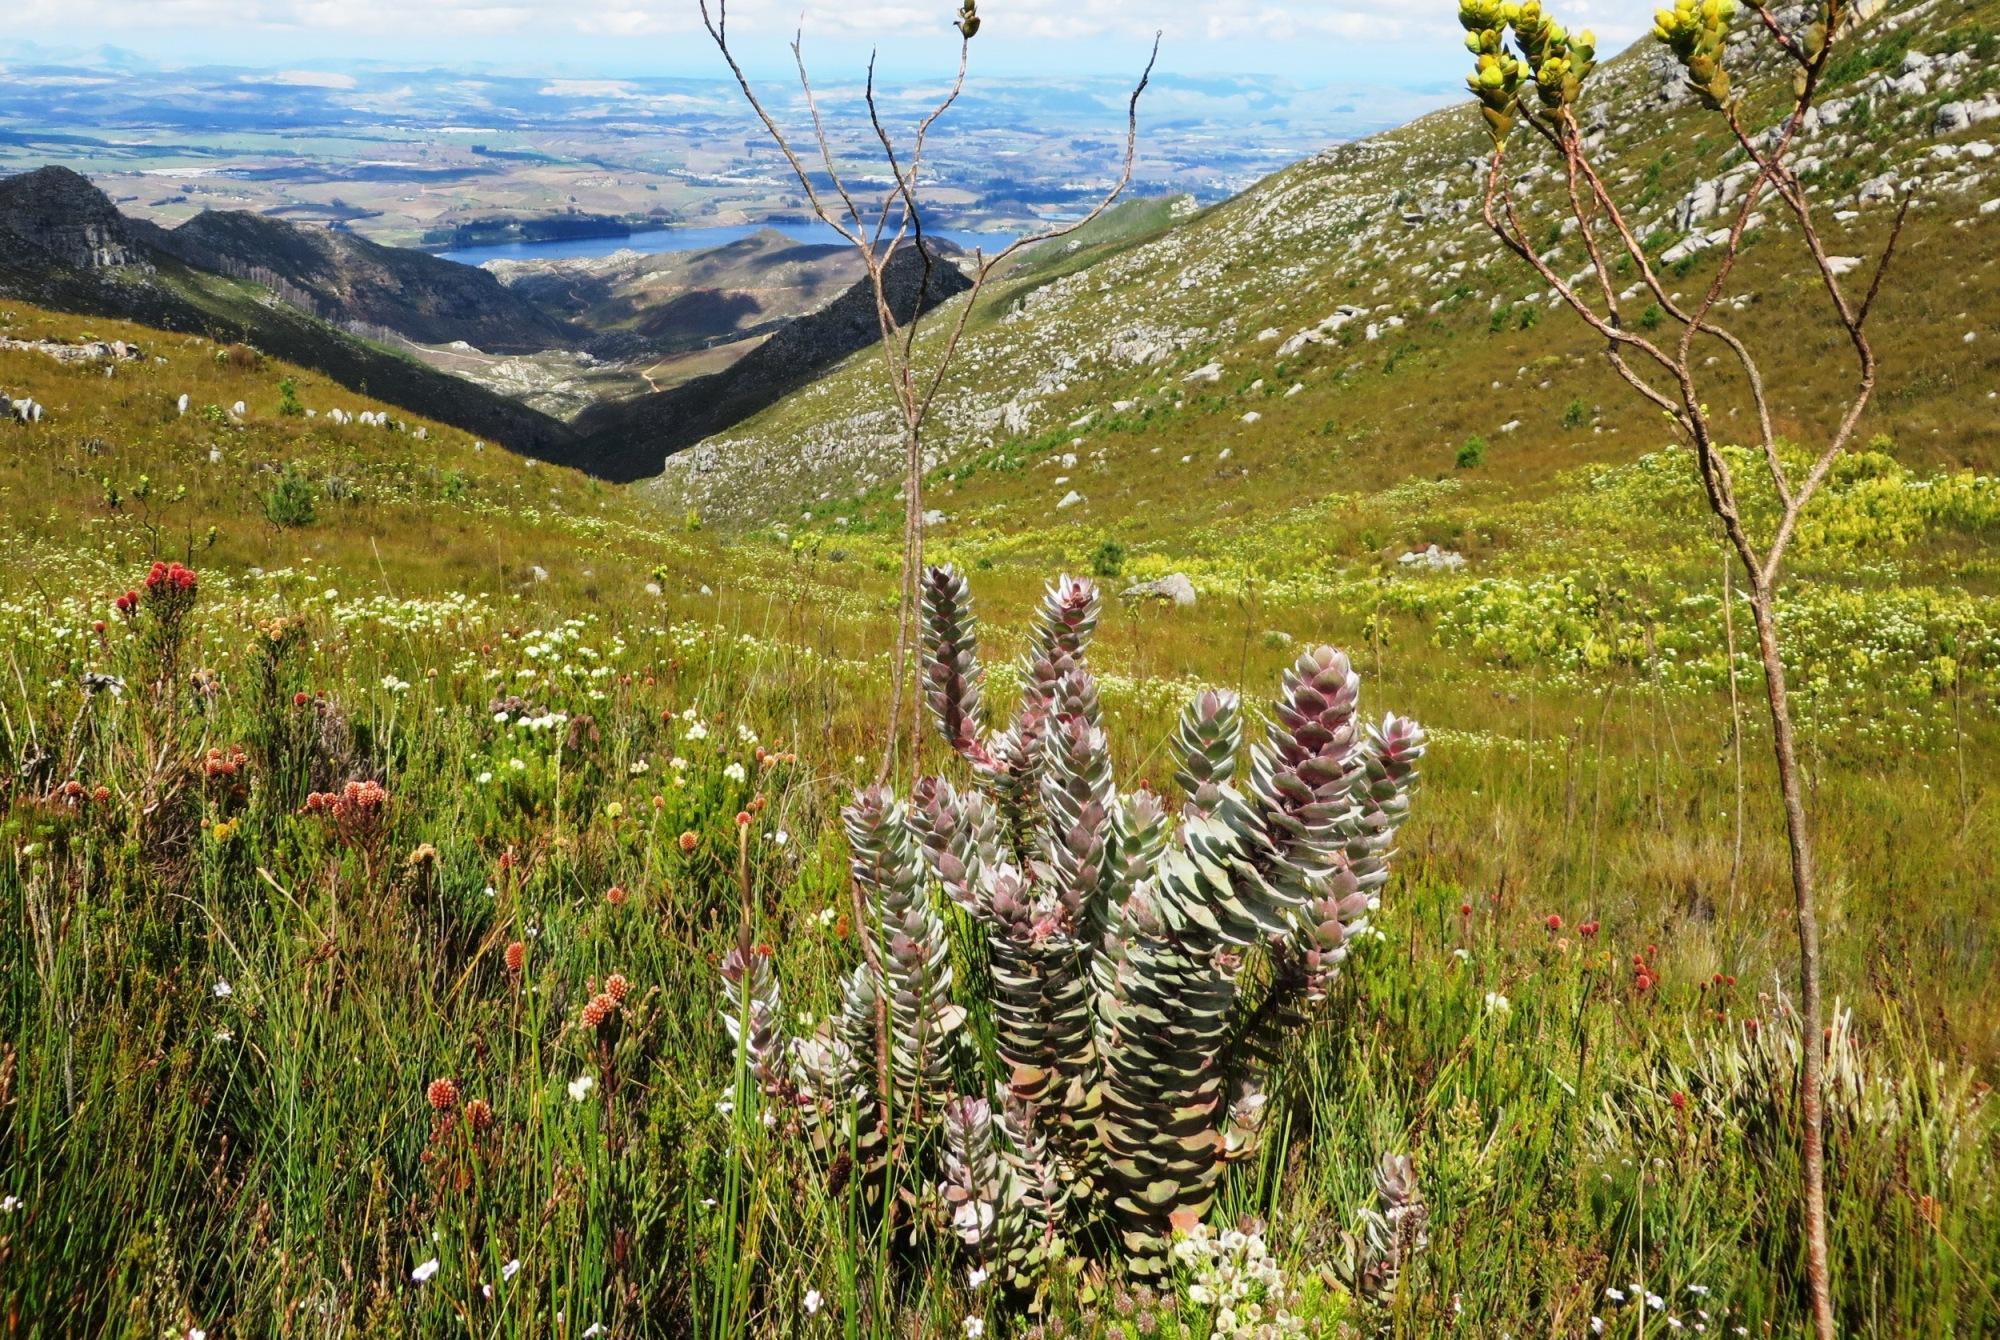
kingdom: Plantae
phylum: Tracheophyta
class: Magnoliopsida
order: Proteales
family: Proteaceae
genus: Mimetes
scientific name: Mimetes argenteus
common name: Silver pagoda
